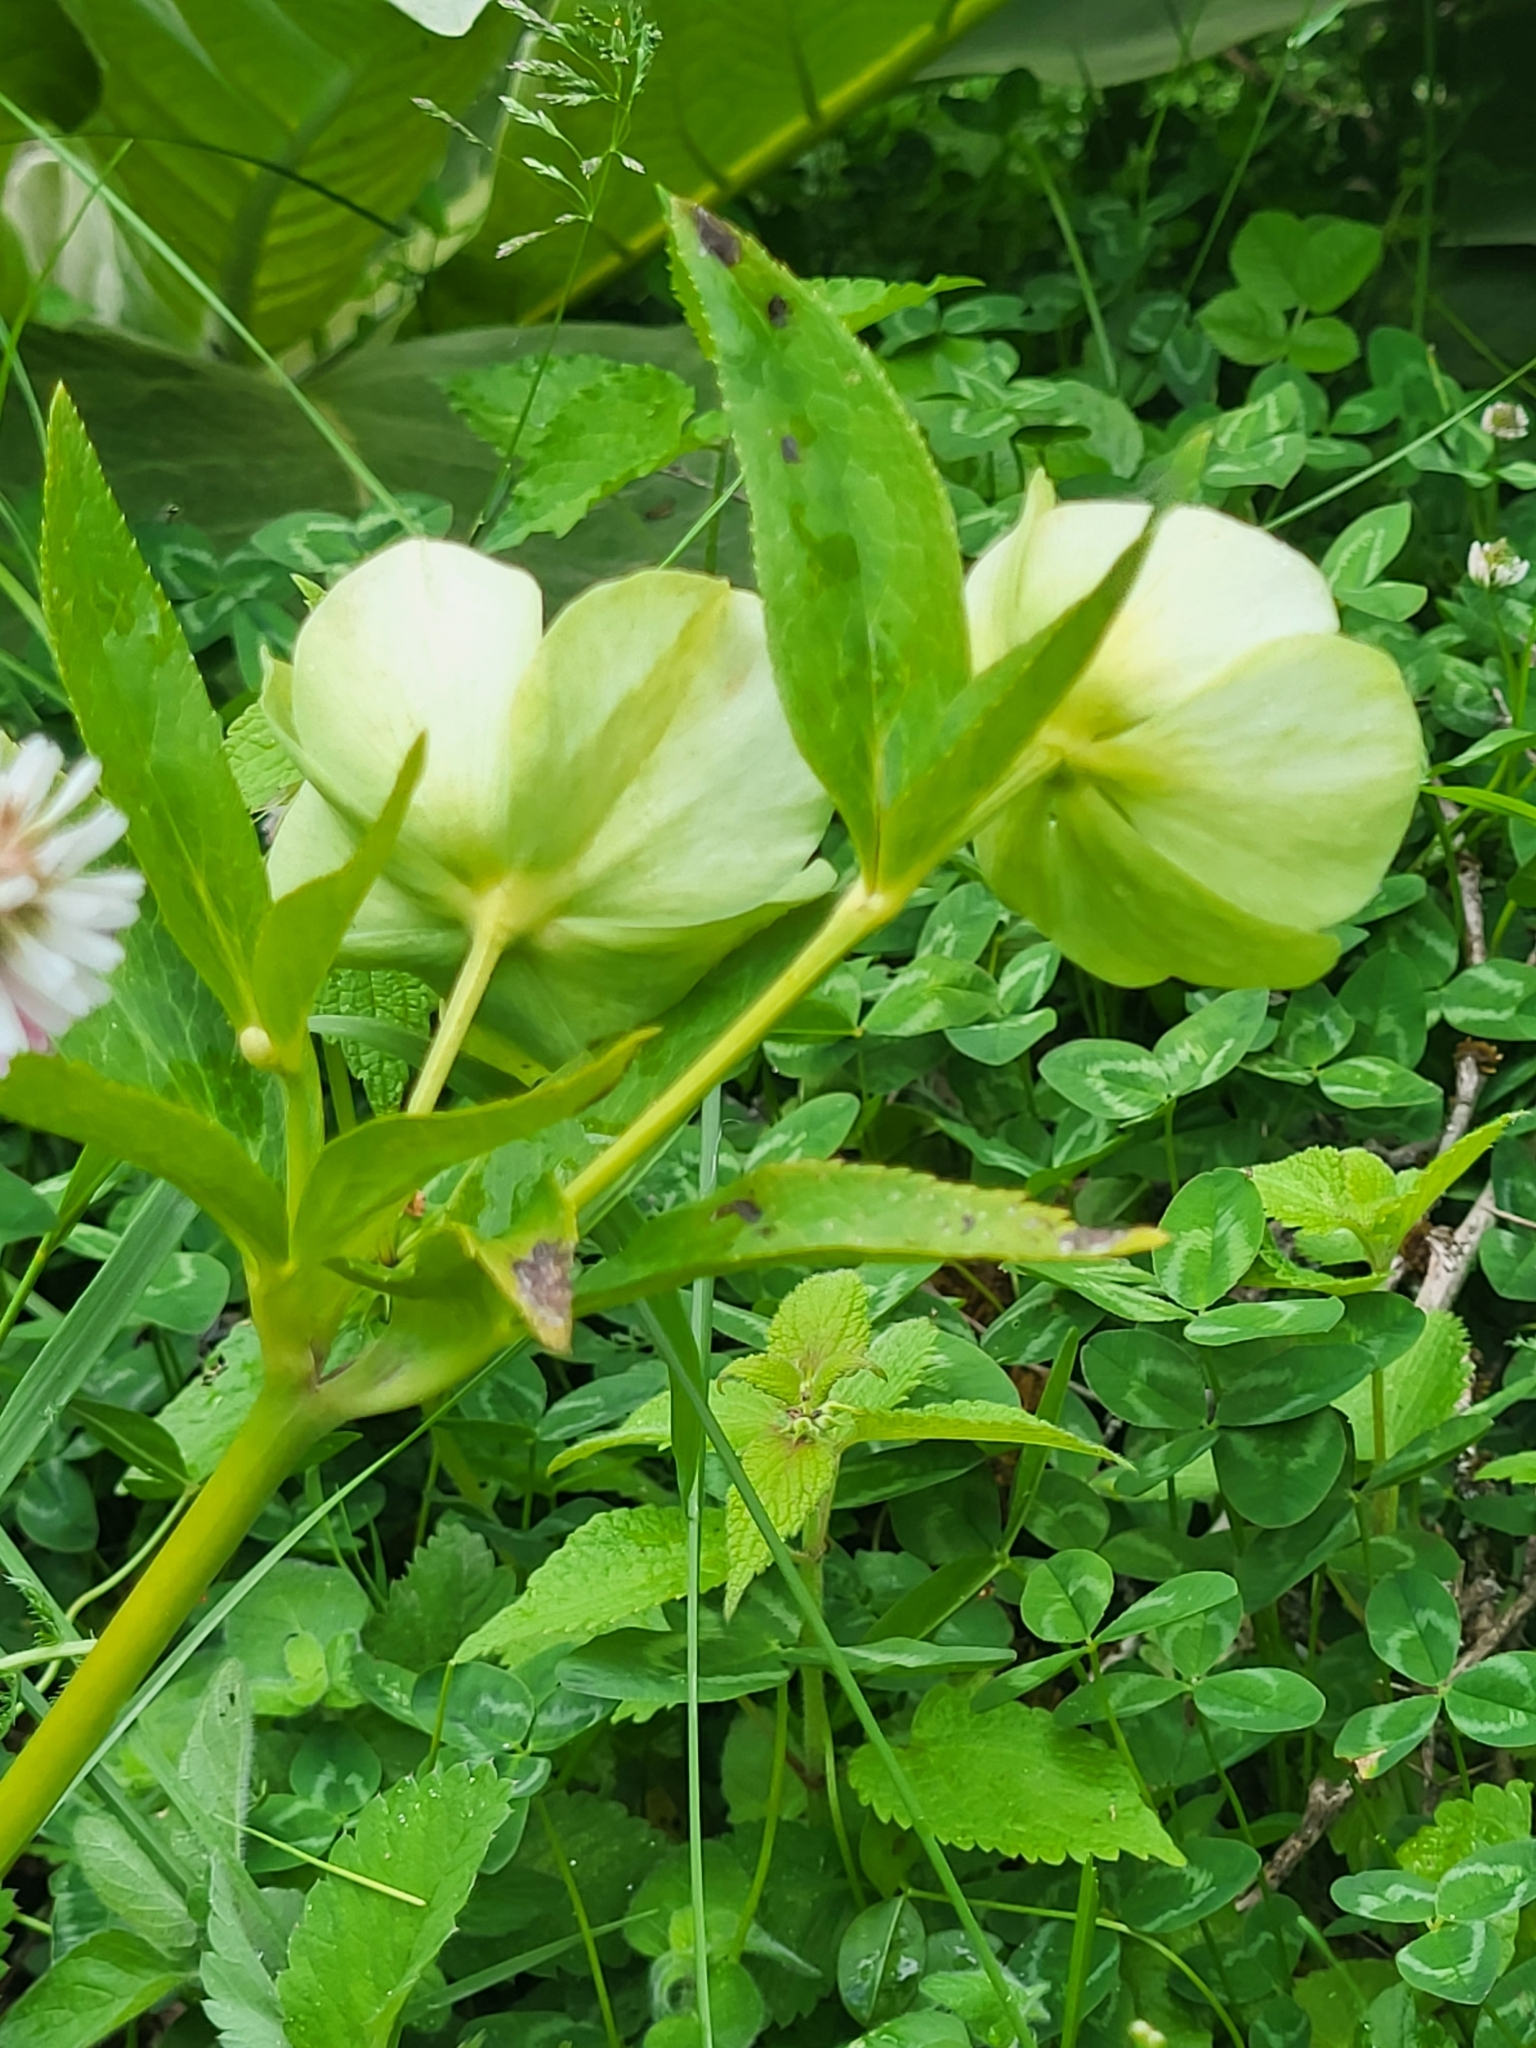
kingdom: Plantae
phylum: Tracheophyta
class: Magnoliopsida
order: Ranunculales
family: Ranunculaceae
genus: Helleborus
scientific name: Helleborus orientalis
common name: Lenten-rose
